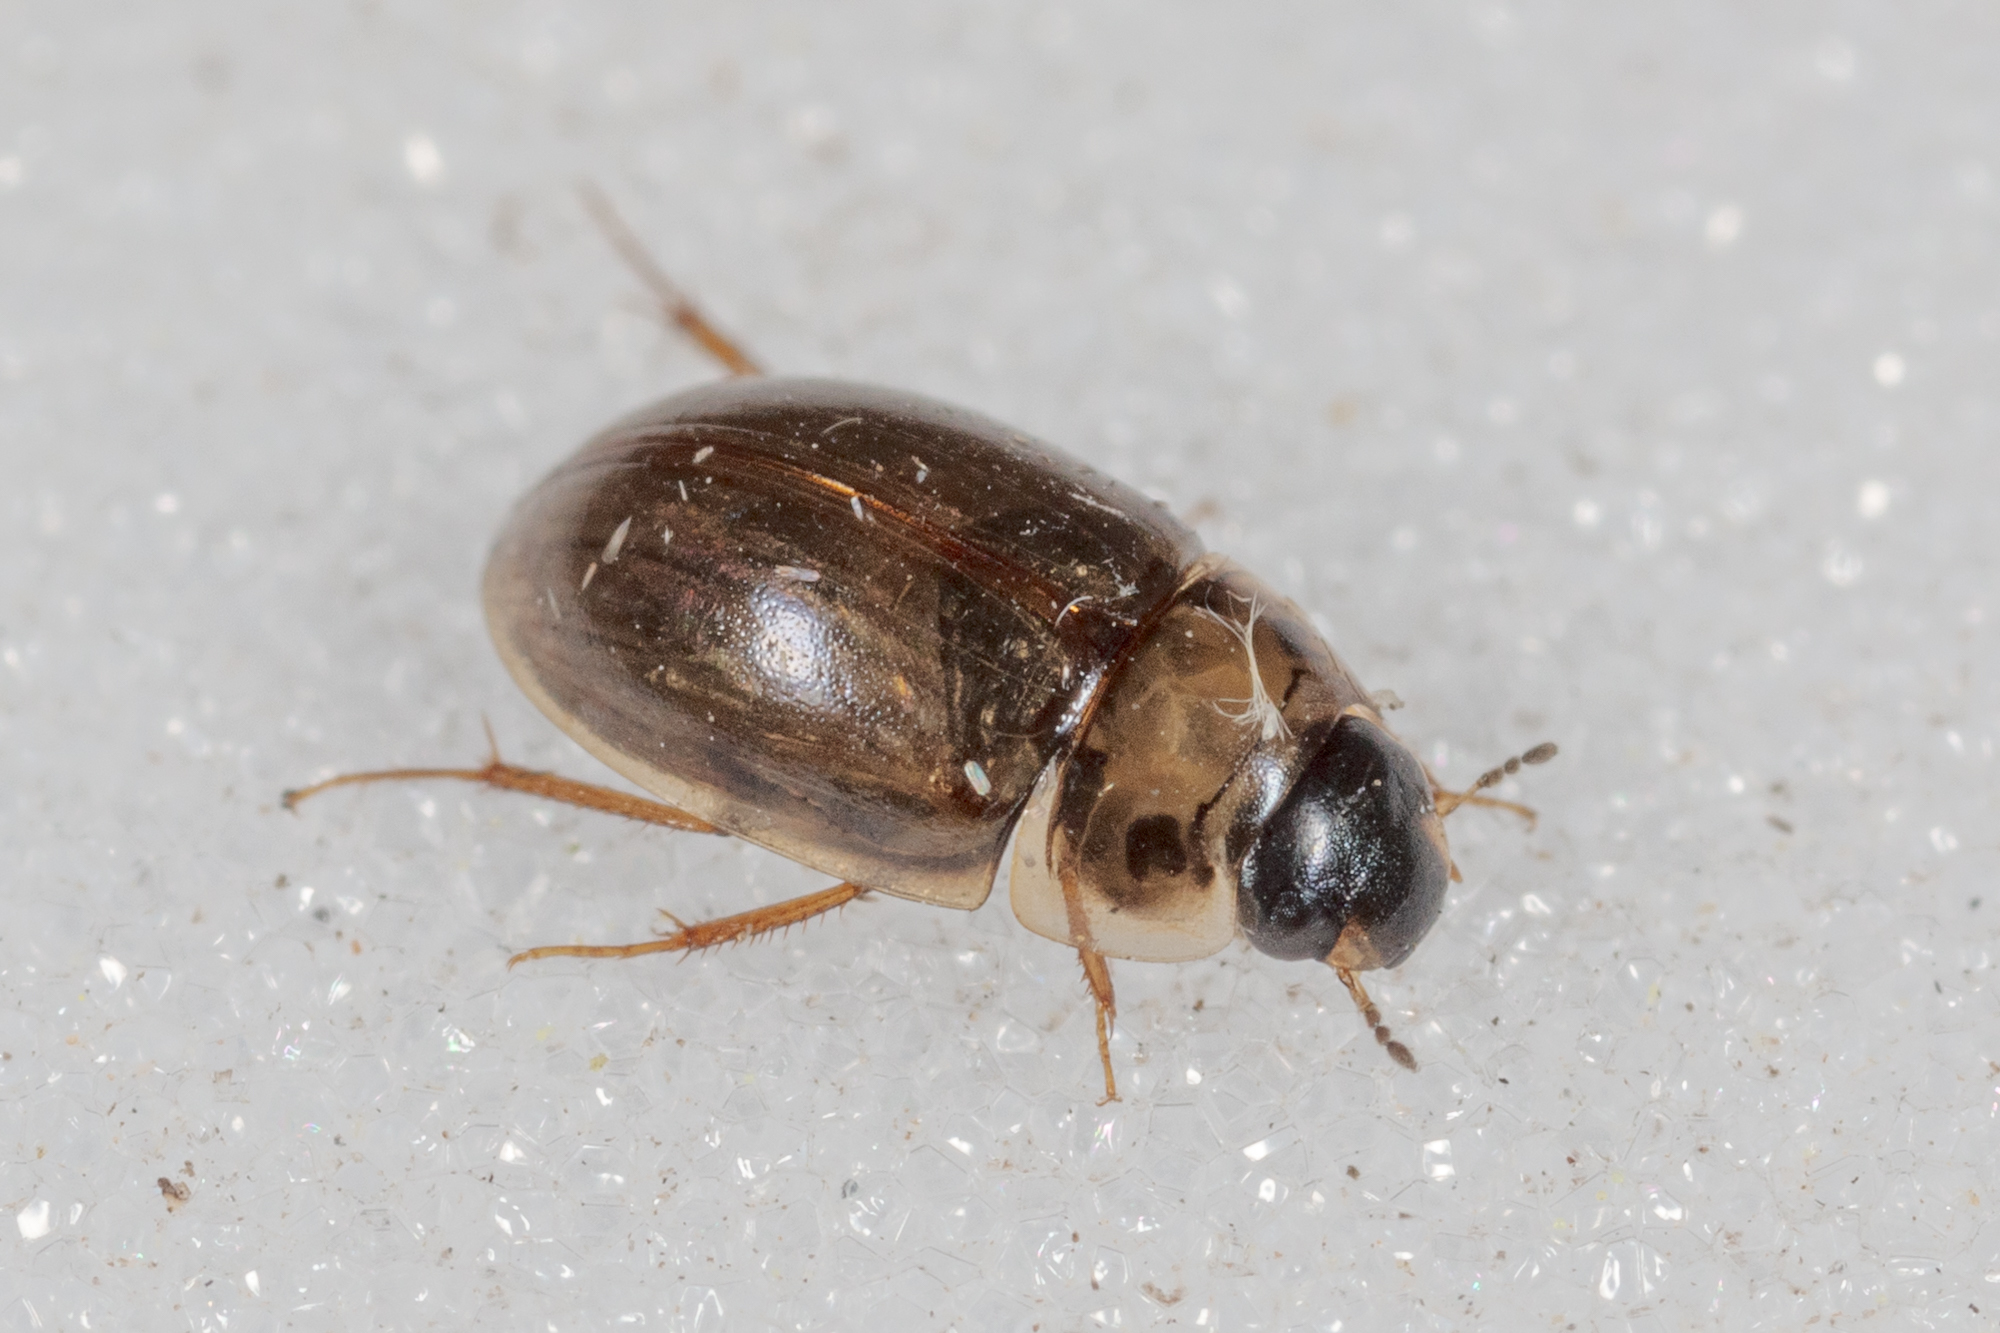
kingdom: Animalia
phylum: Arthropoda
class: Insecta
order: Coleoptera
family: Hydrophilidae
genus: Enochrus
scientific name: Enochrus
